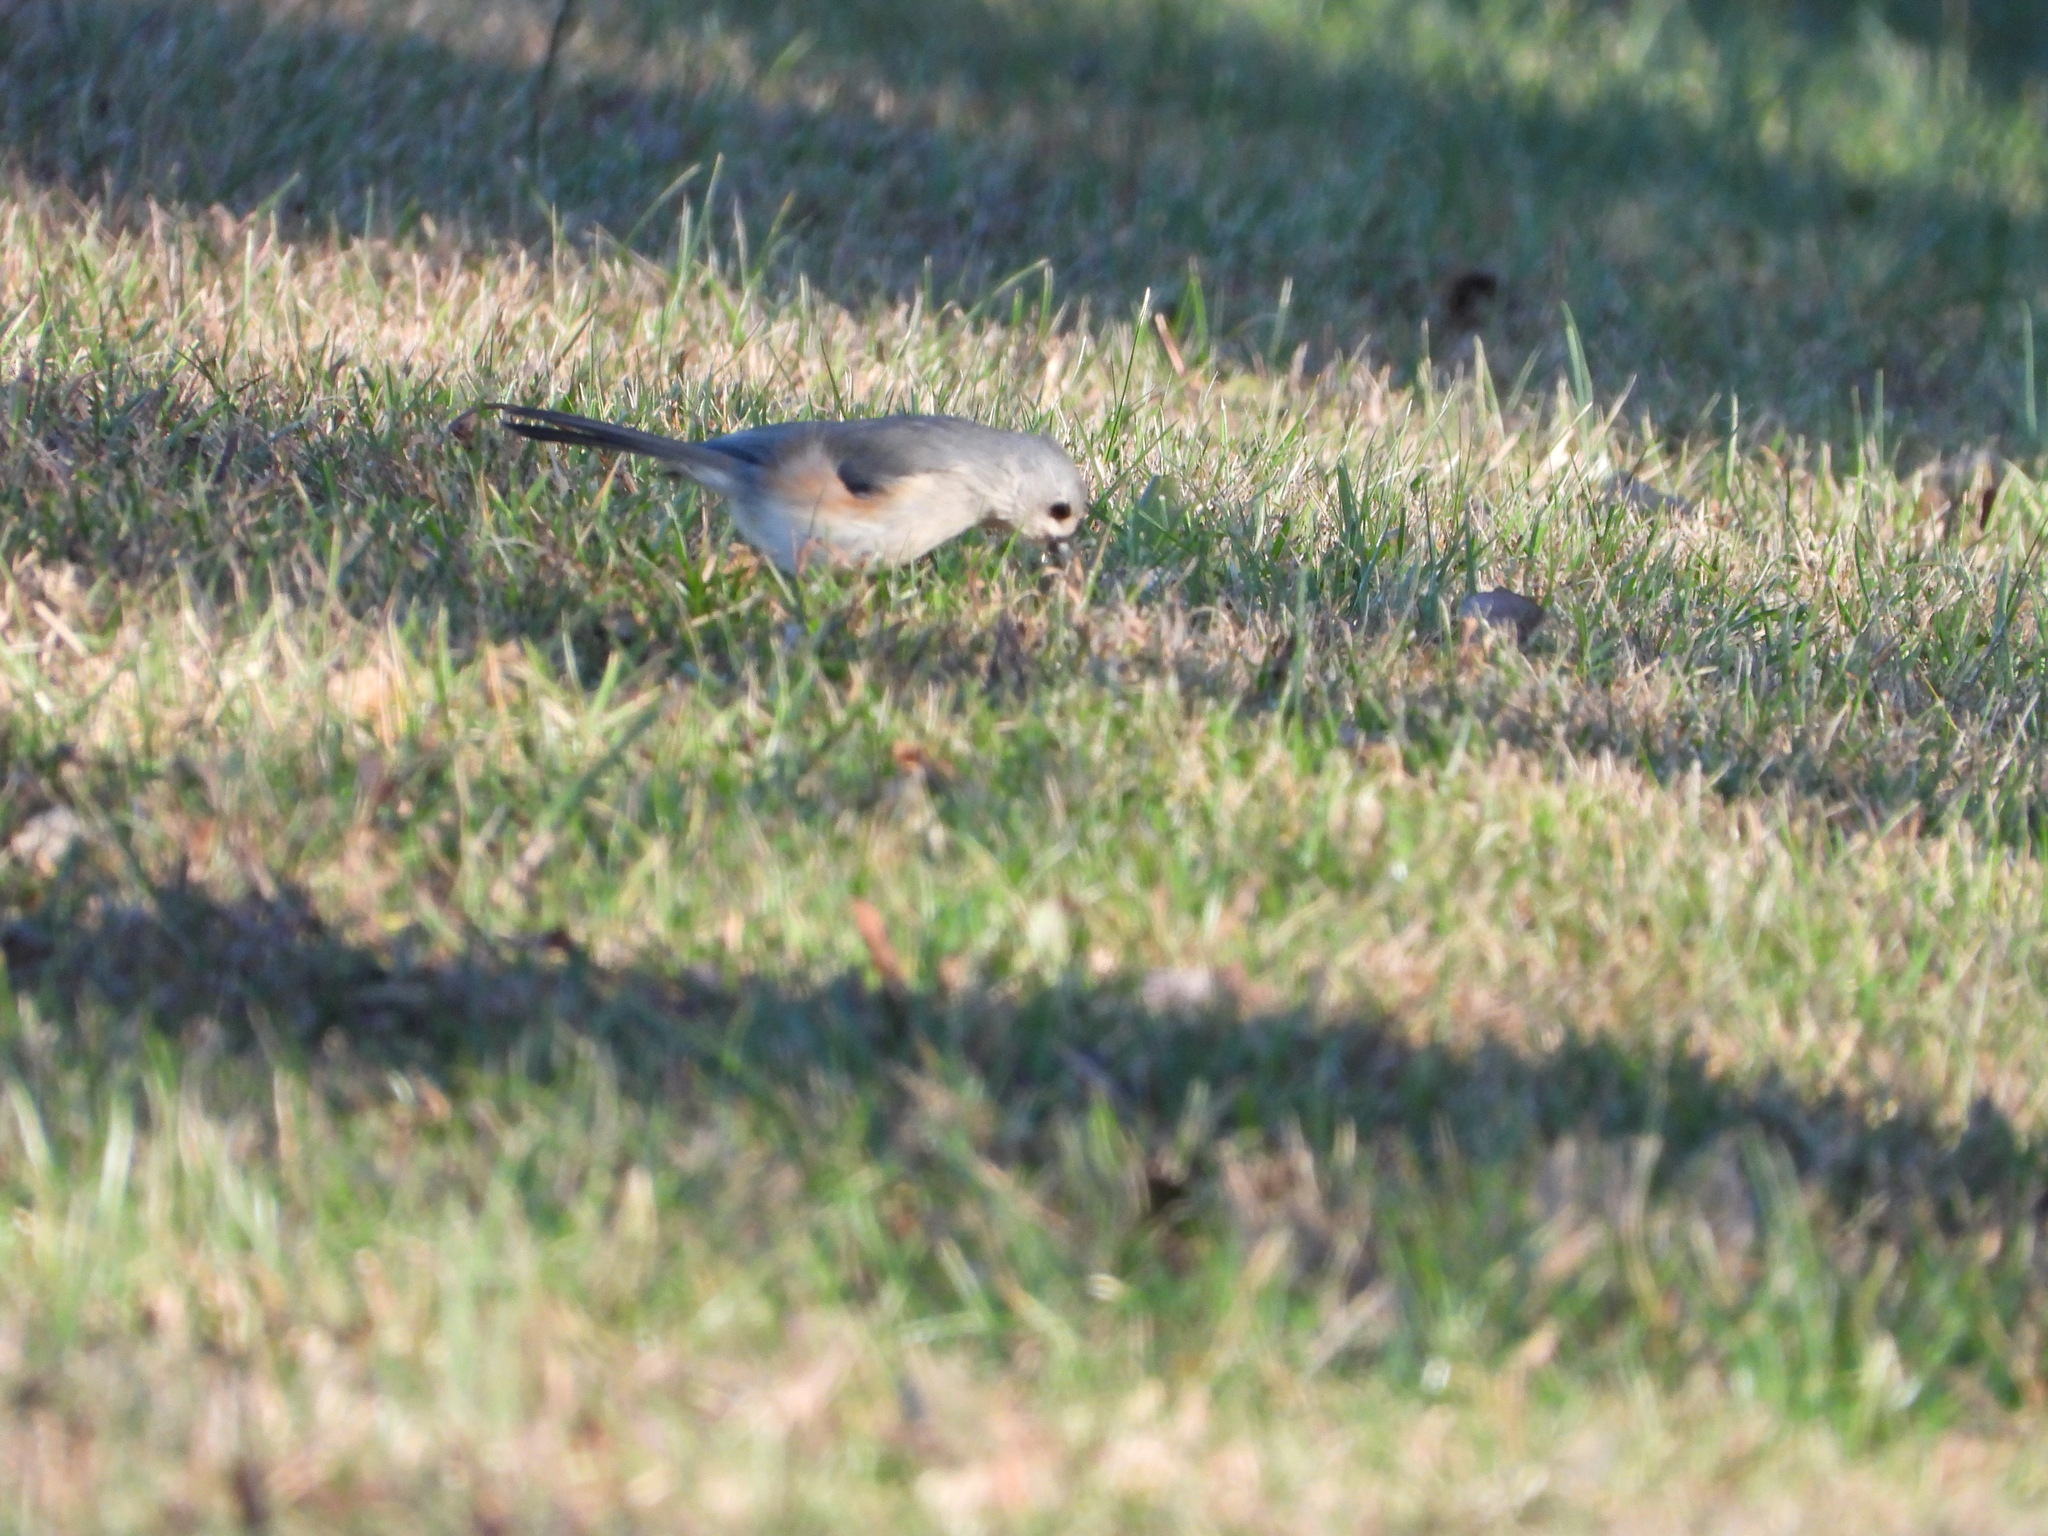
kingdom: Animalia
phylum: Chordata
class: Aves
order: Passeriformes
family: Paridae
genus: Baeolophus
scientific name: Baeolophus bicolor
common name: Tufted titmouse
